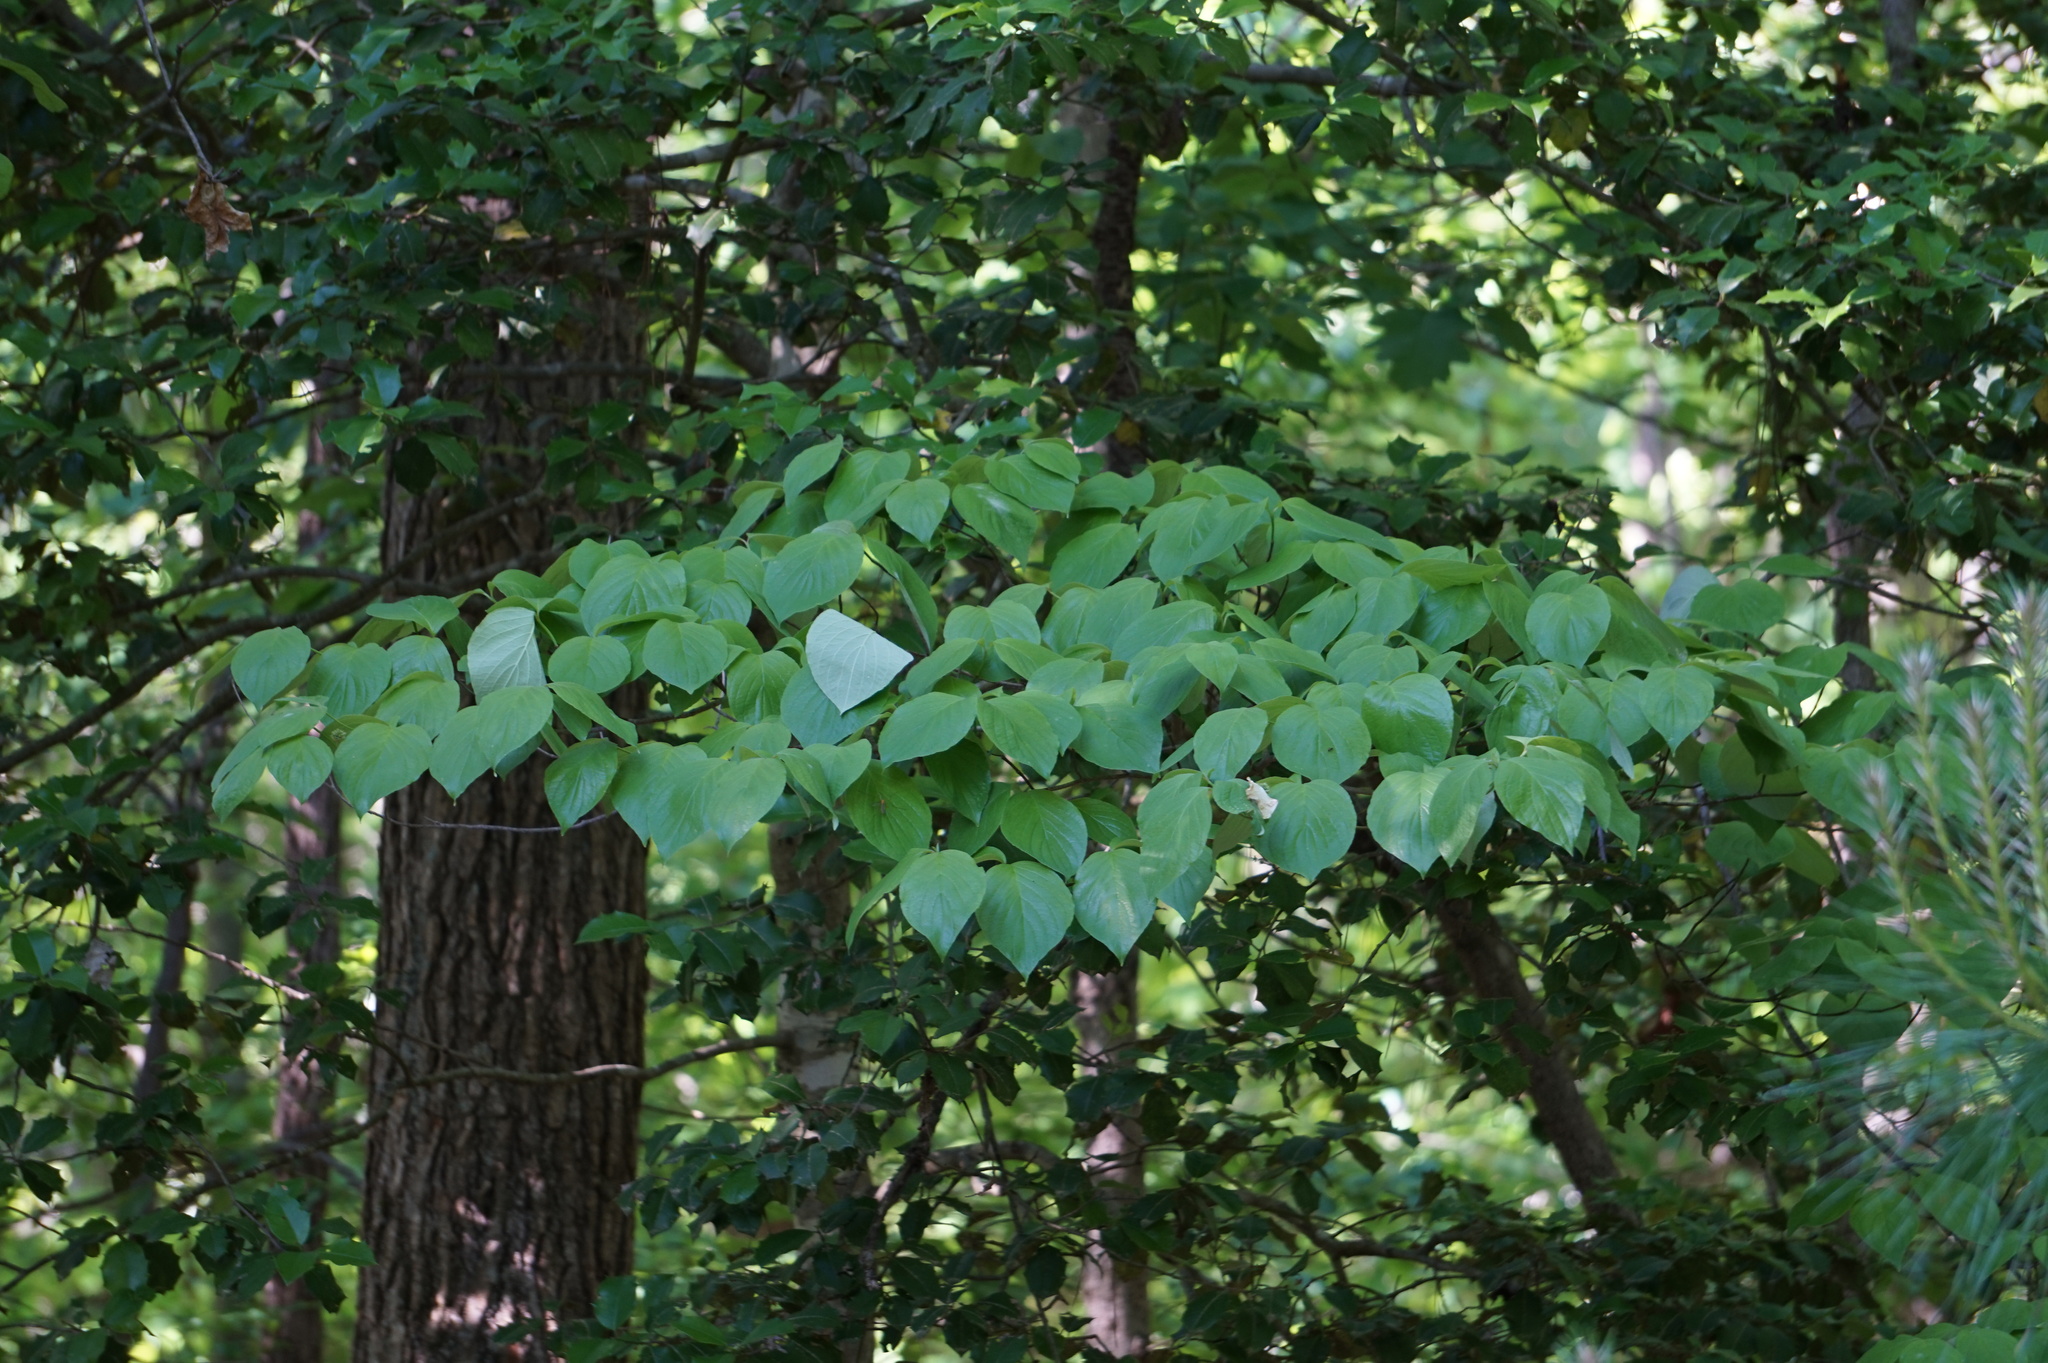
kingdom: Plantae
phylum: Tracheophyta
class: Magnoliopsida
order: Cornales
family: Cornaceae
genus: Cornus
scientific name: Cornus florida
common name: Flowering dogwood
